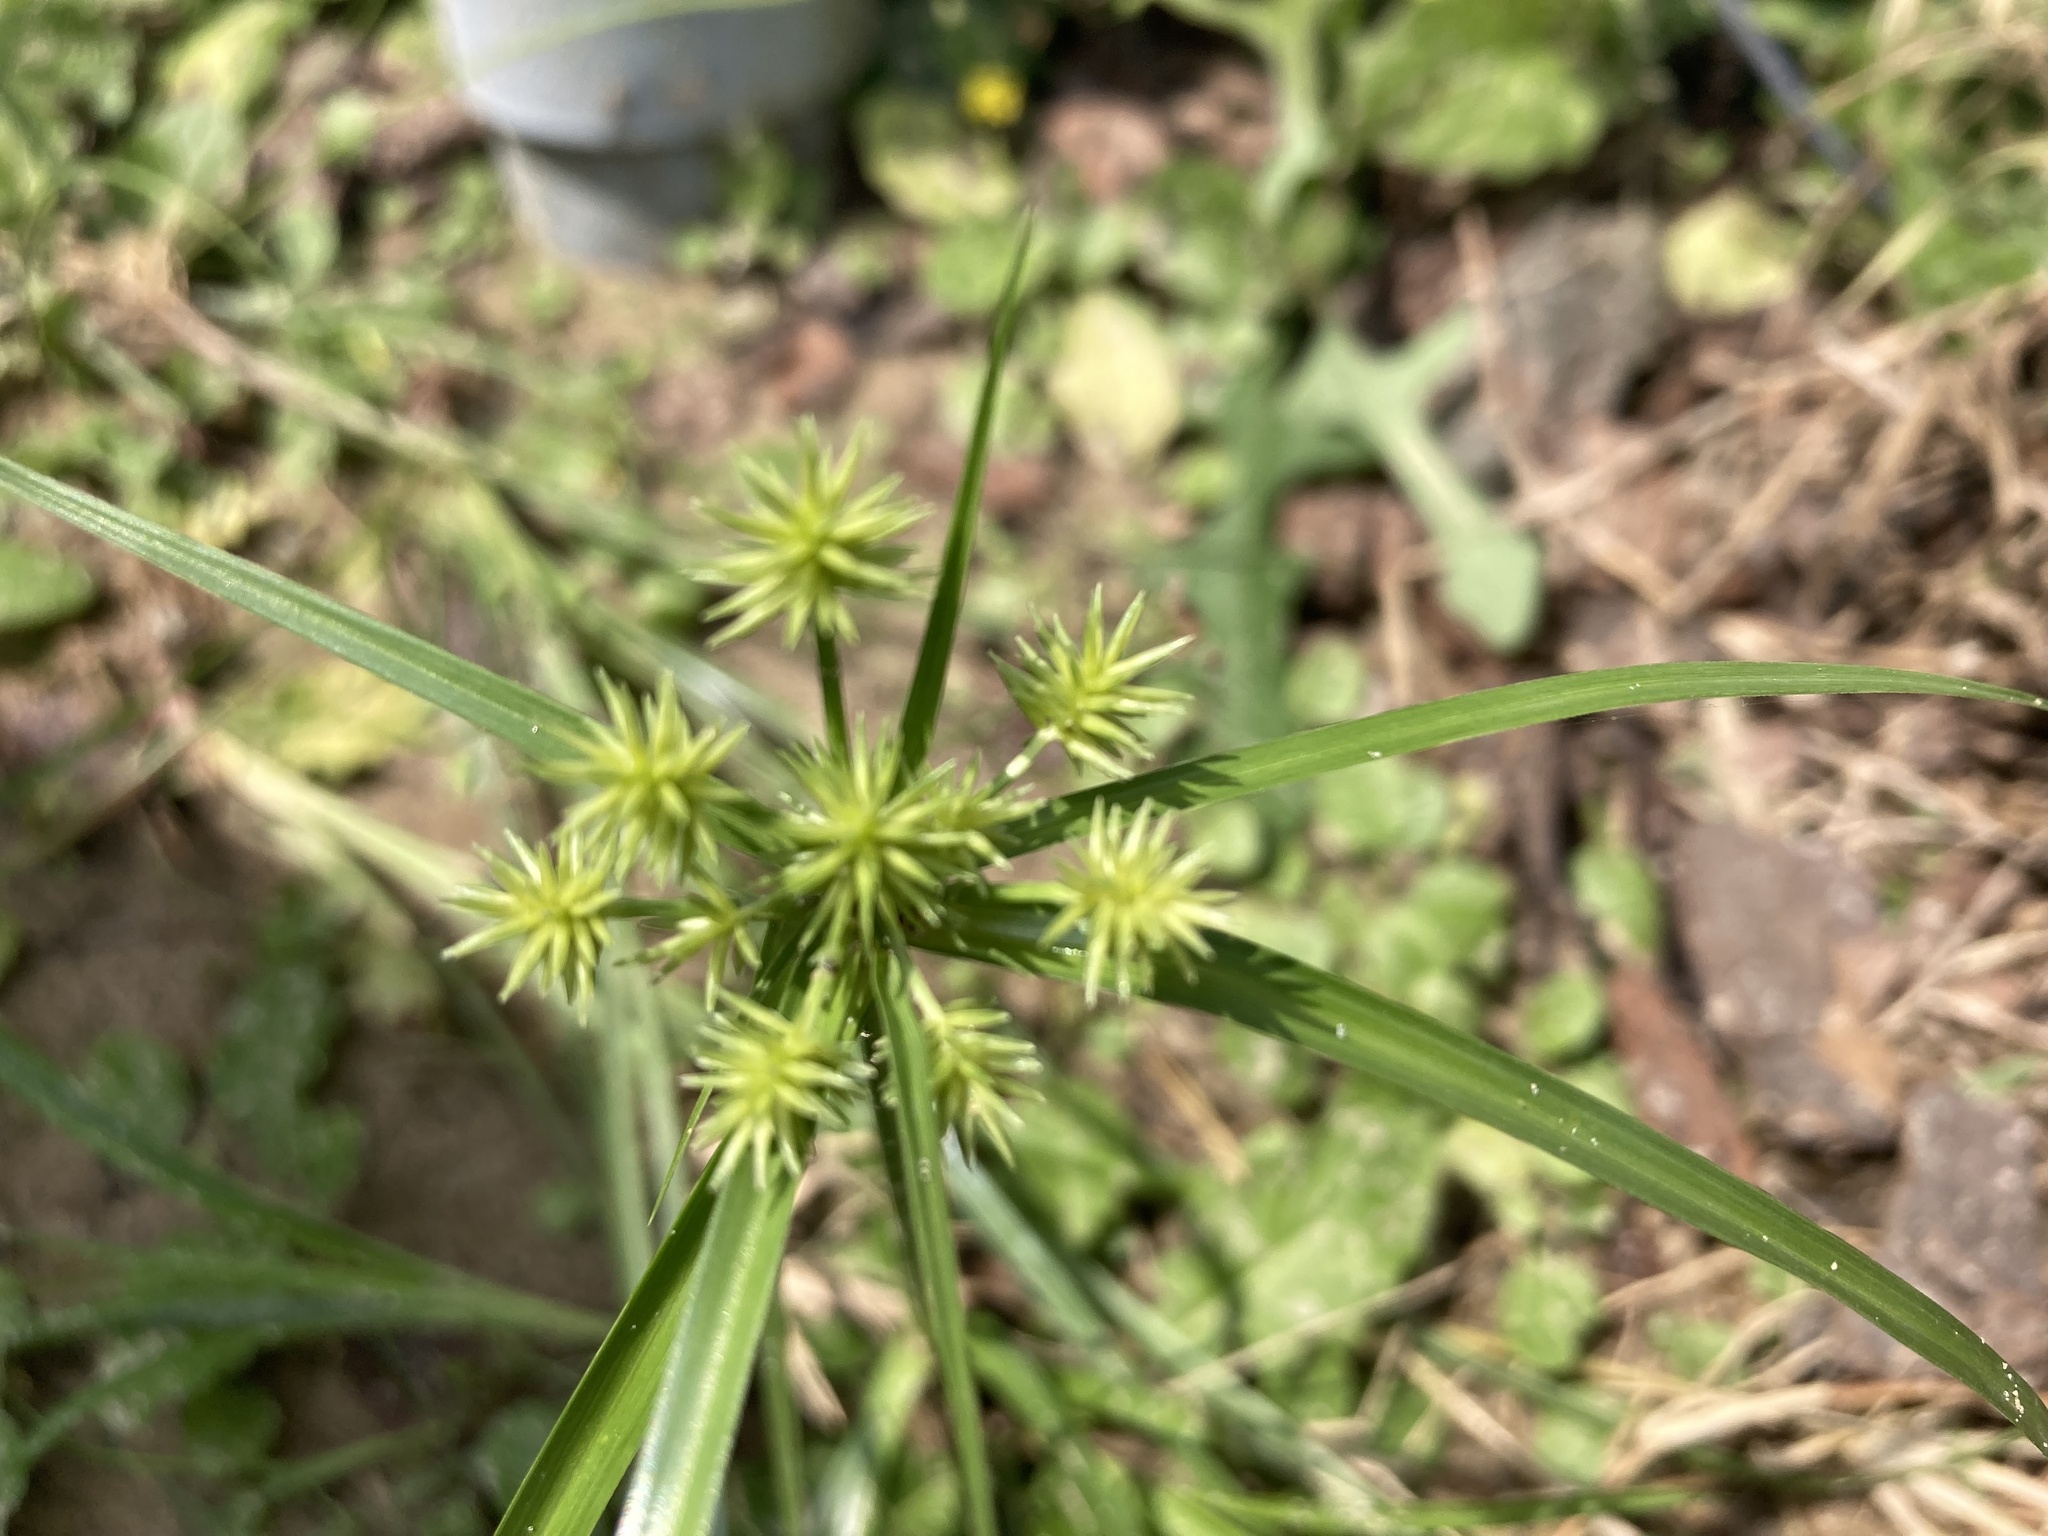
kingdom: Plantae
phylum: Tracheophyta
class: Liliopsida
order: Poales
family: Cyperaceae
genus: Cyperus
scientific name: Cyperus croceus
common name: Baldwin's flatsedge
